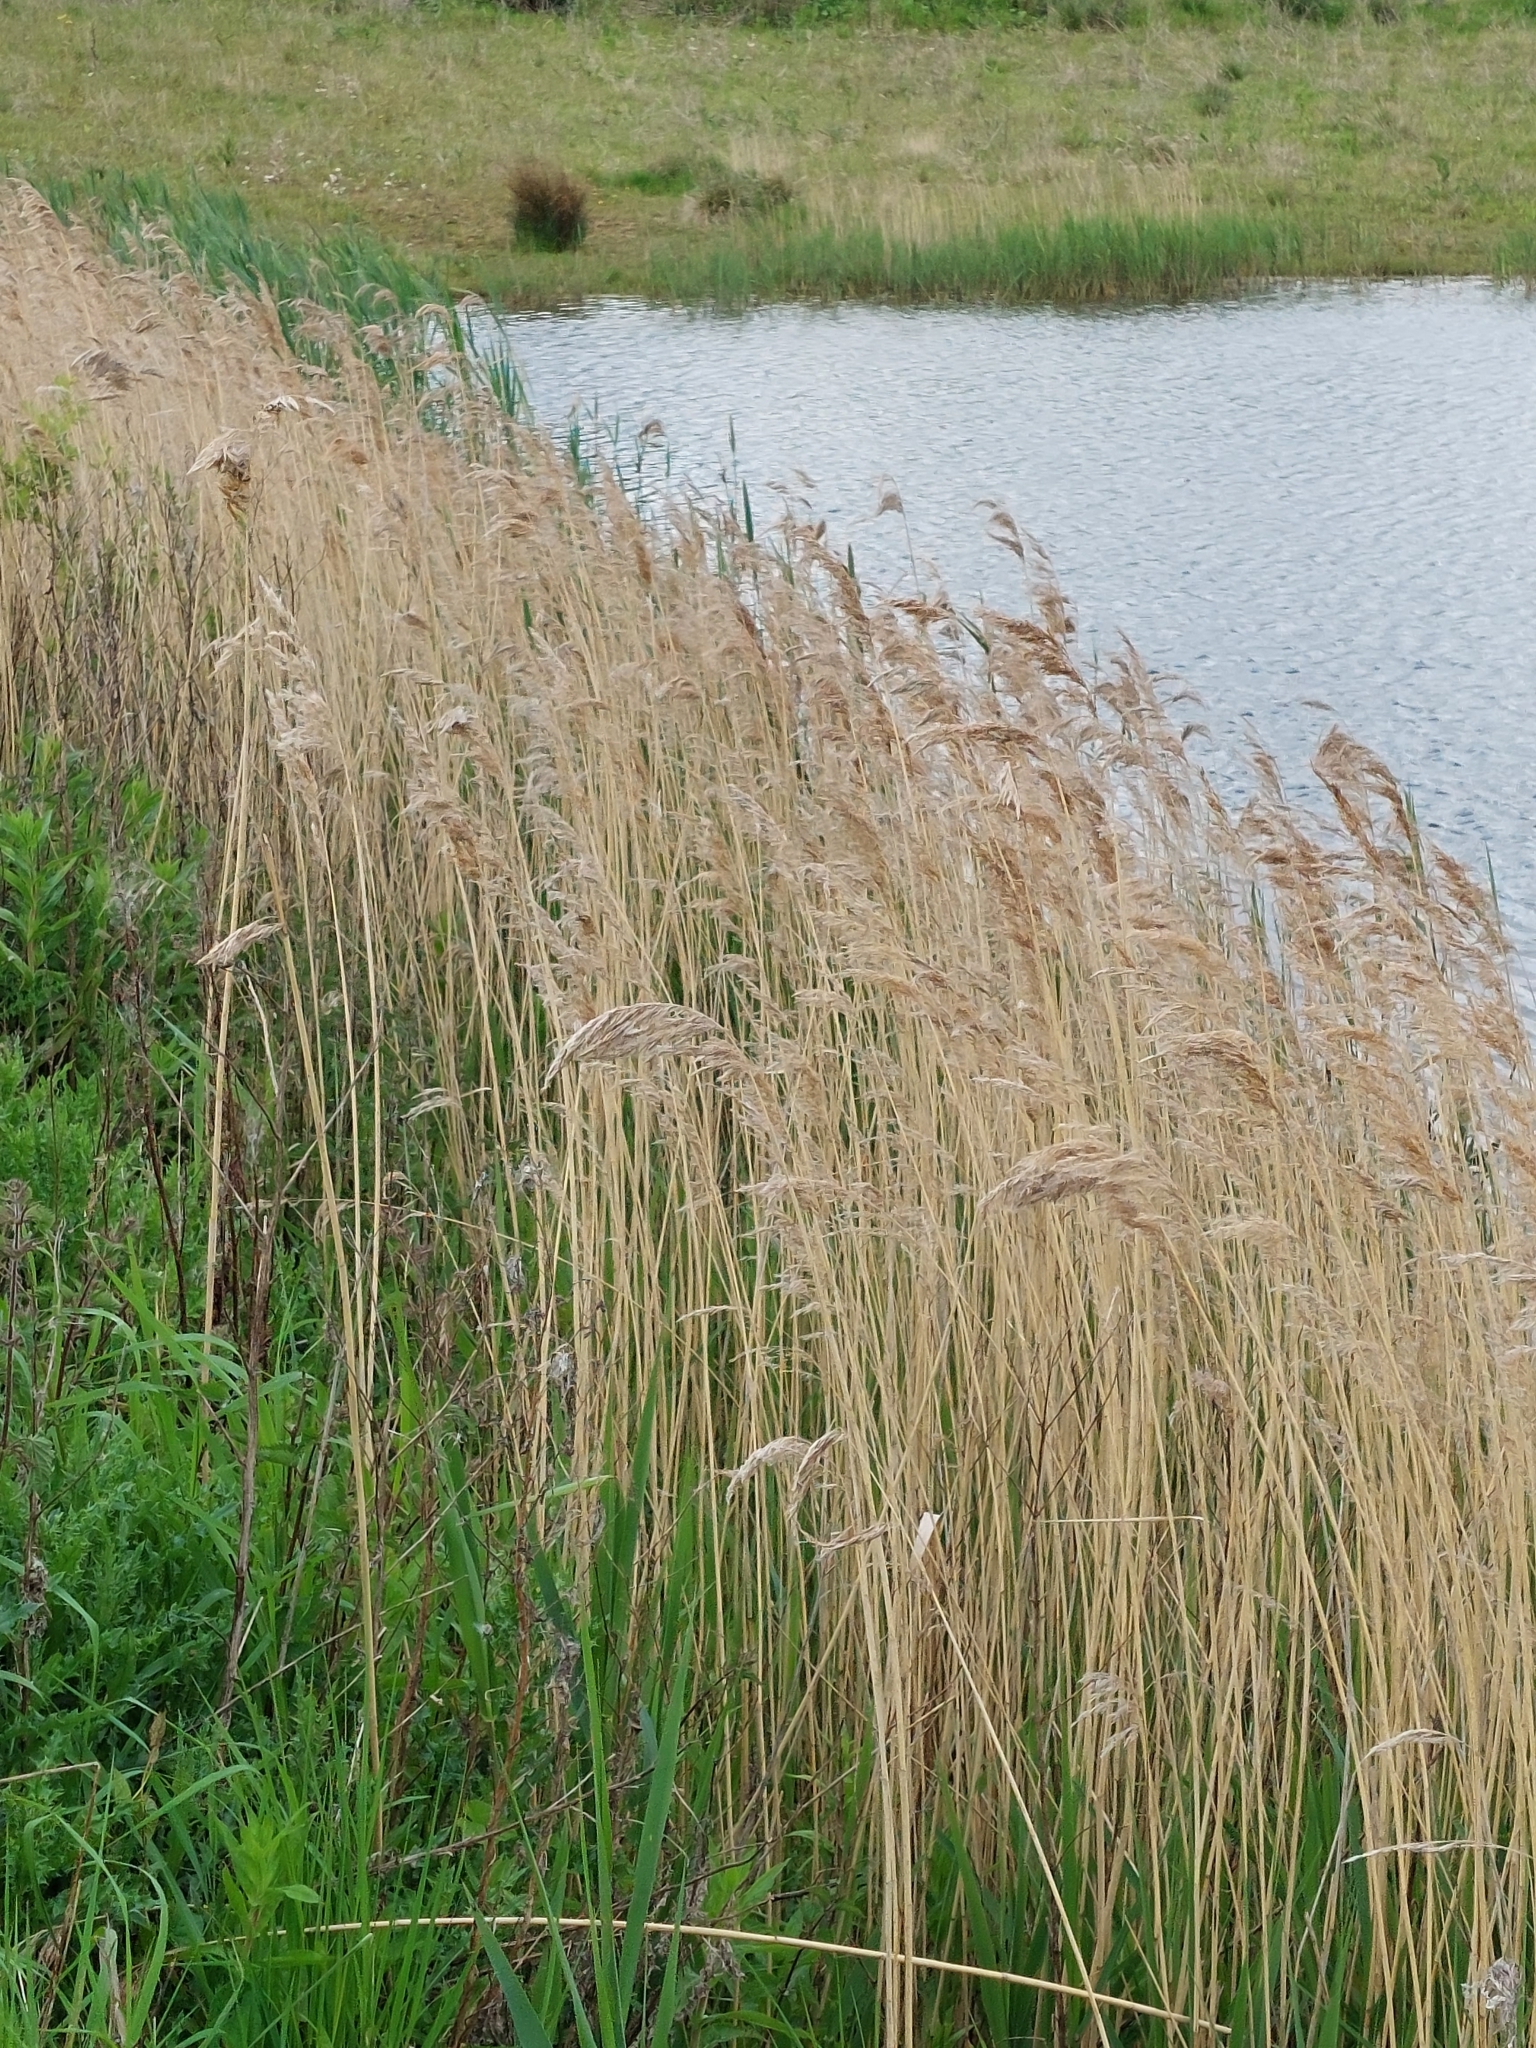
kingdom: Plantae
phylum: Tracheophyta
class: Liliopsida
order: Poales
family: Poaceae
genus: Phragmites
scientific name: Phragmites australis
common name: Common reed
